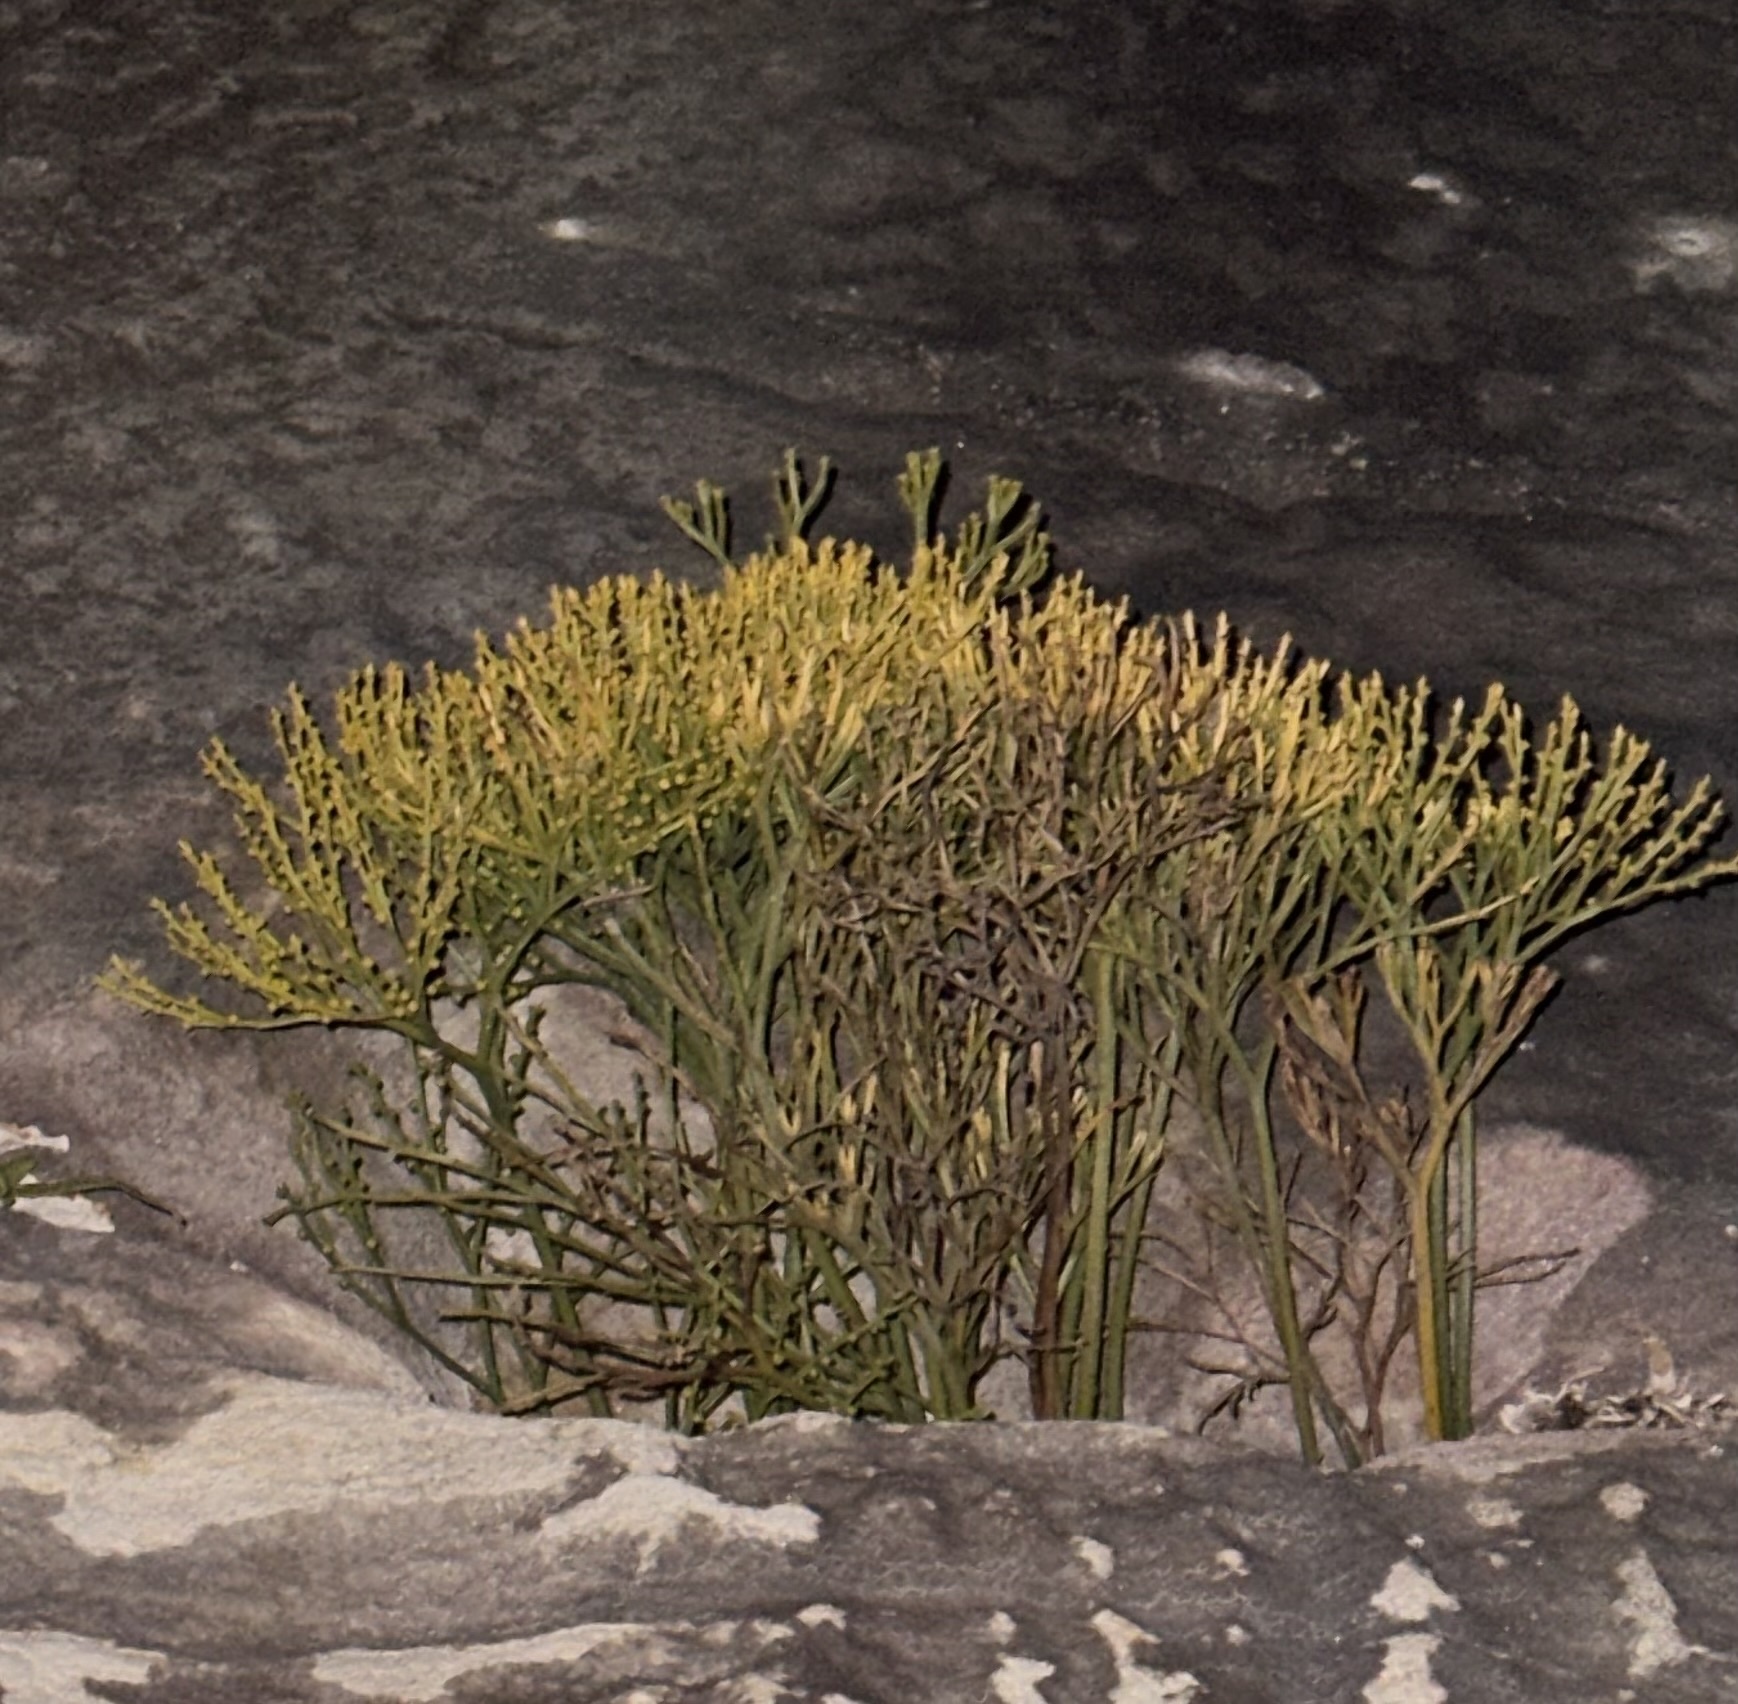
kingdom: Plantae
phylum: Tracheophyta
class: Polypodiopsida
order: Psilotales
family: Psilotaceae
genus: Psilotum
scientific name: Psilotum nudum
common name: Skeleton fork fern
